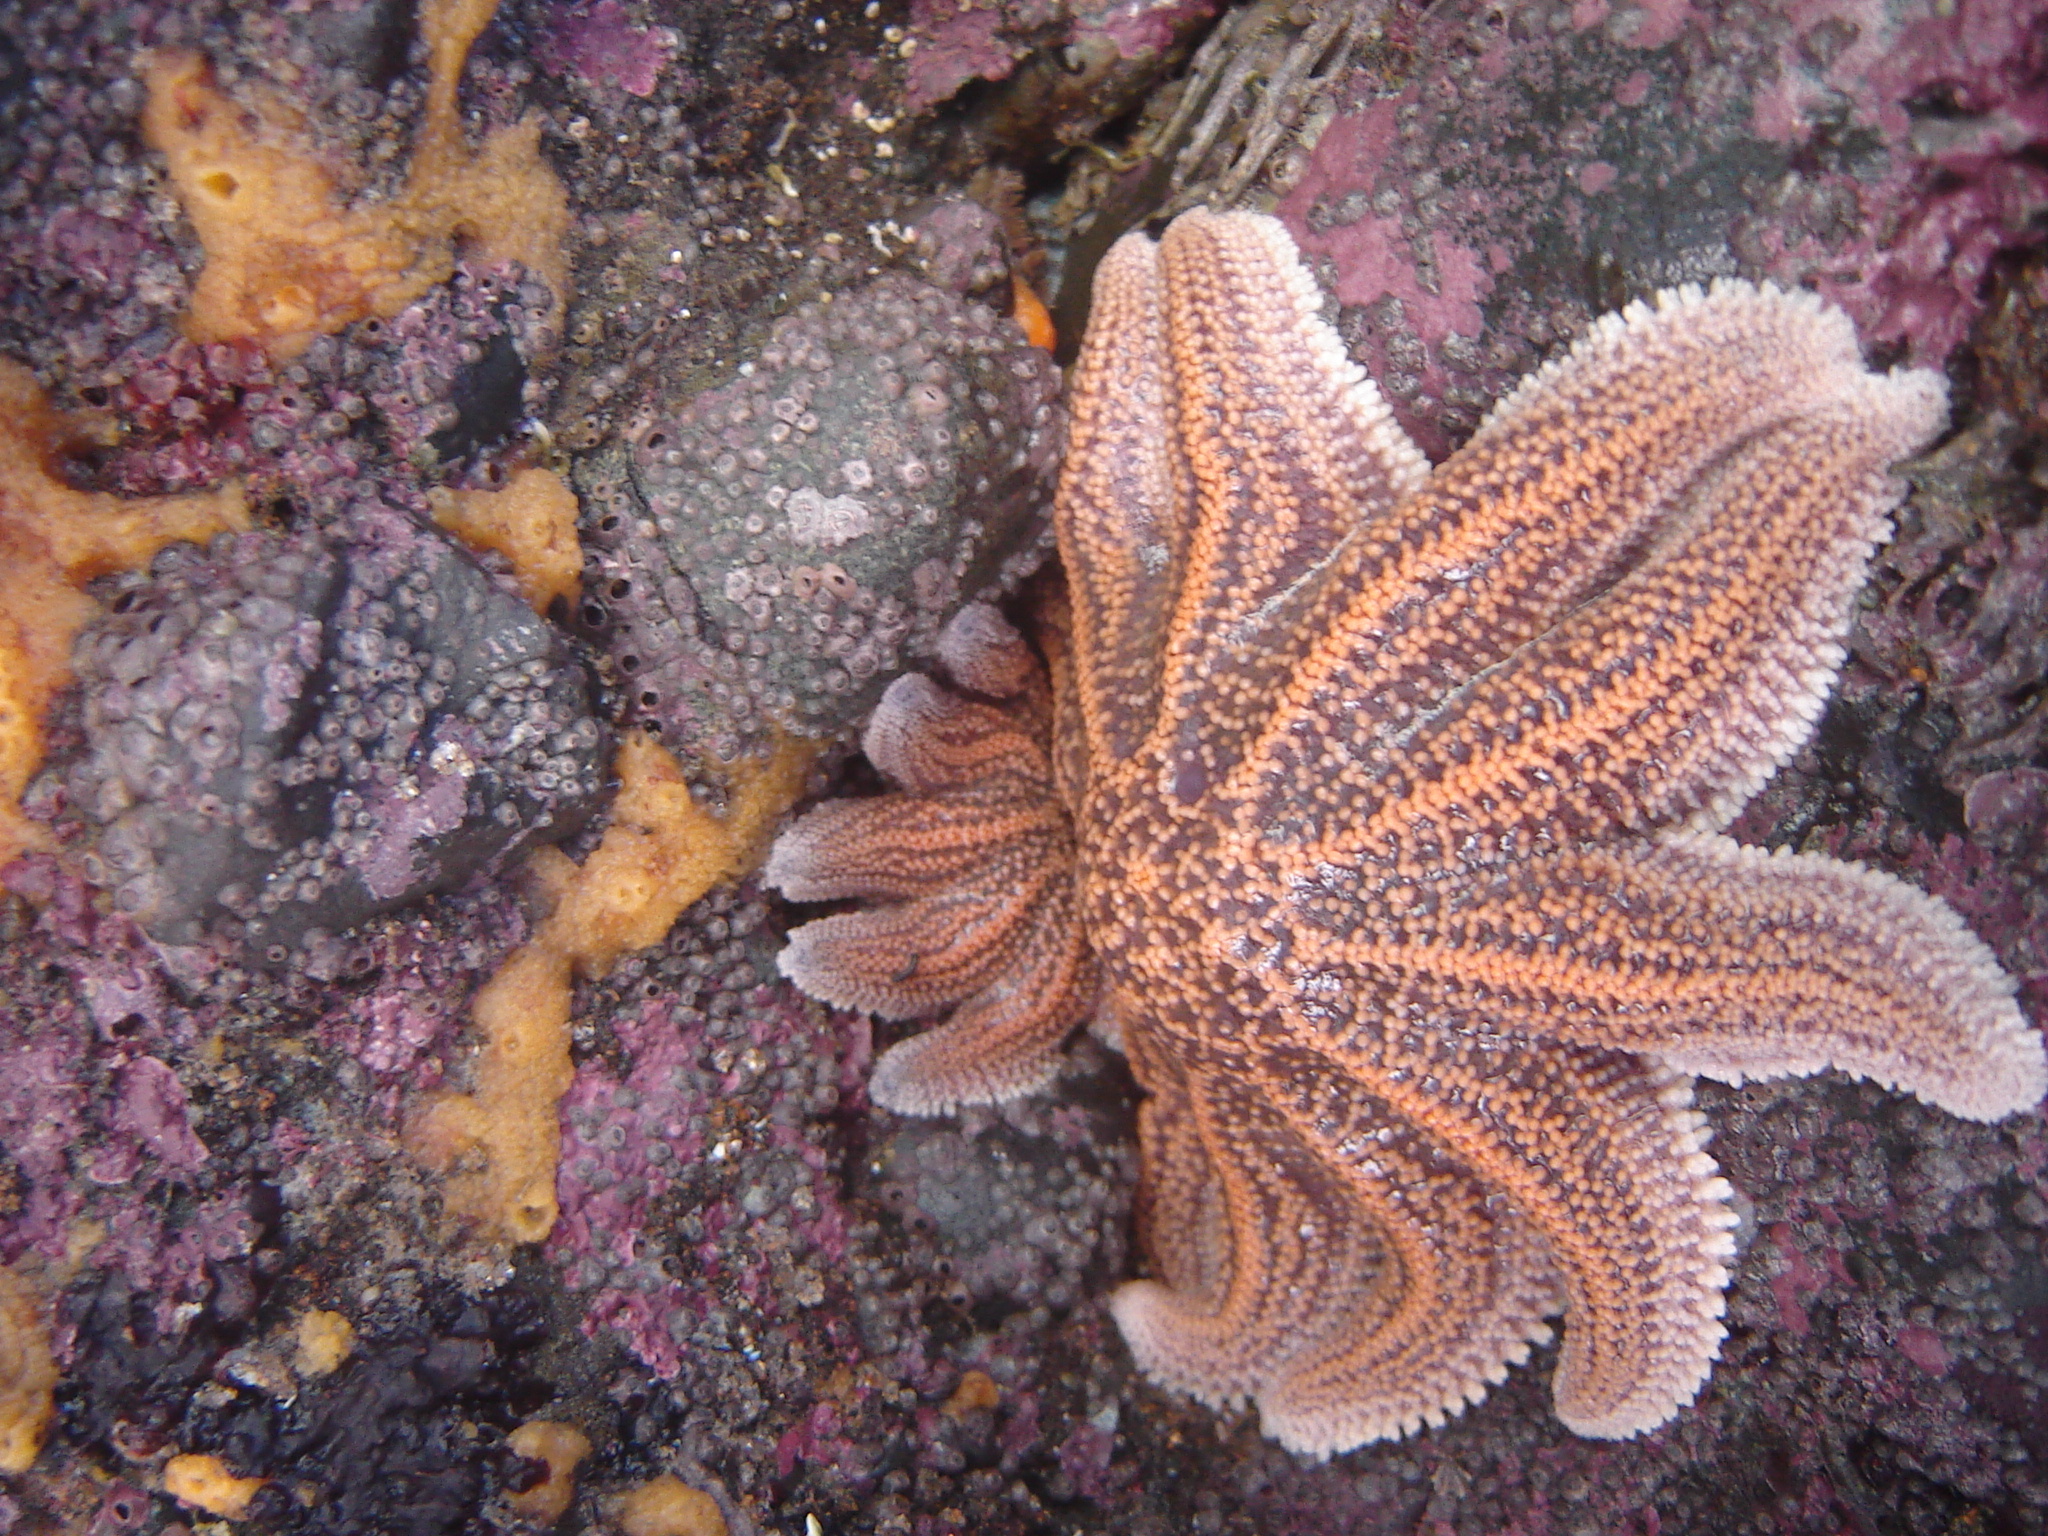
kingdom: Animalia
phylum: Echinodermata
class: Asteroidea
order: Forcipulatida
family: Stichasteridae
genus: Stichaster
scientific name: Stichaster australis
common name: Reef starfish
